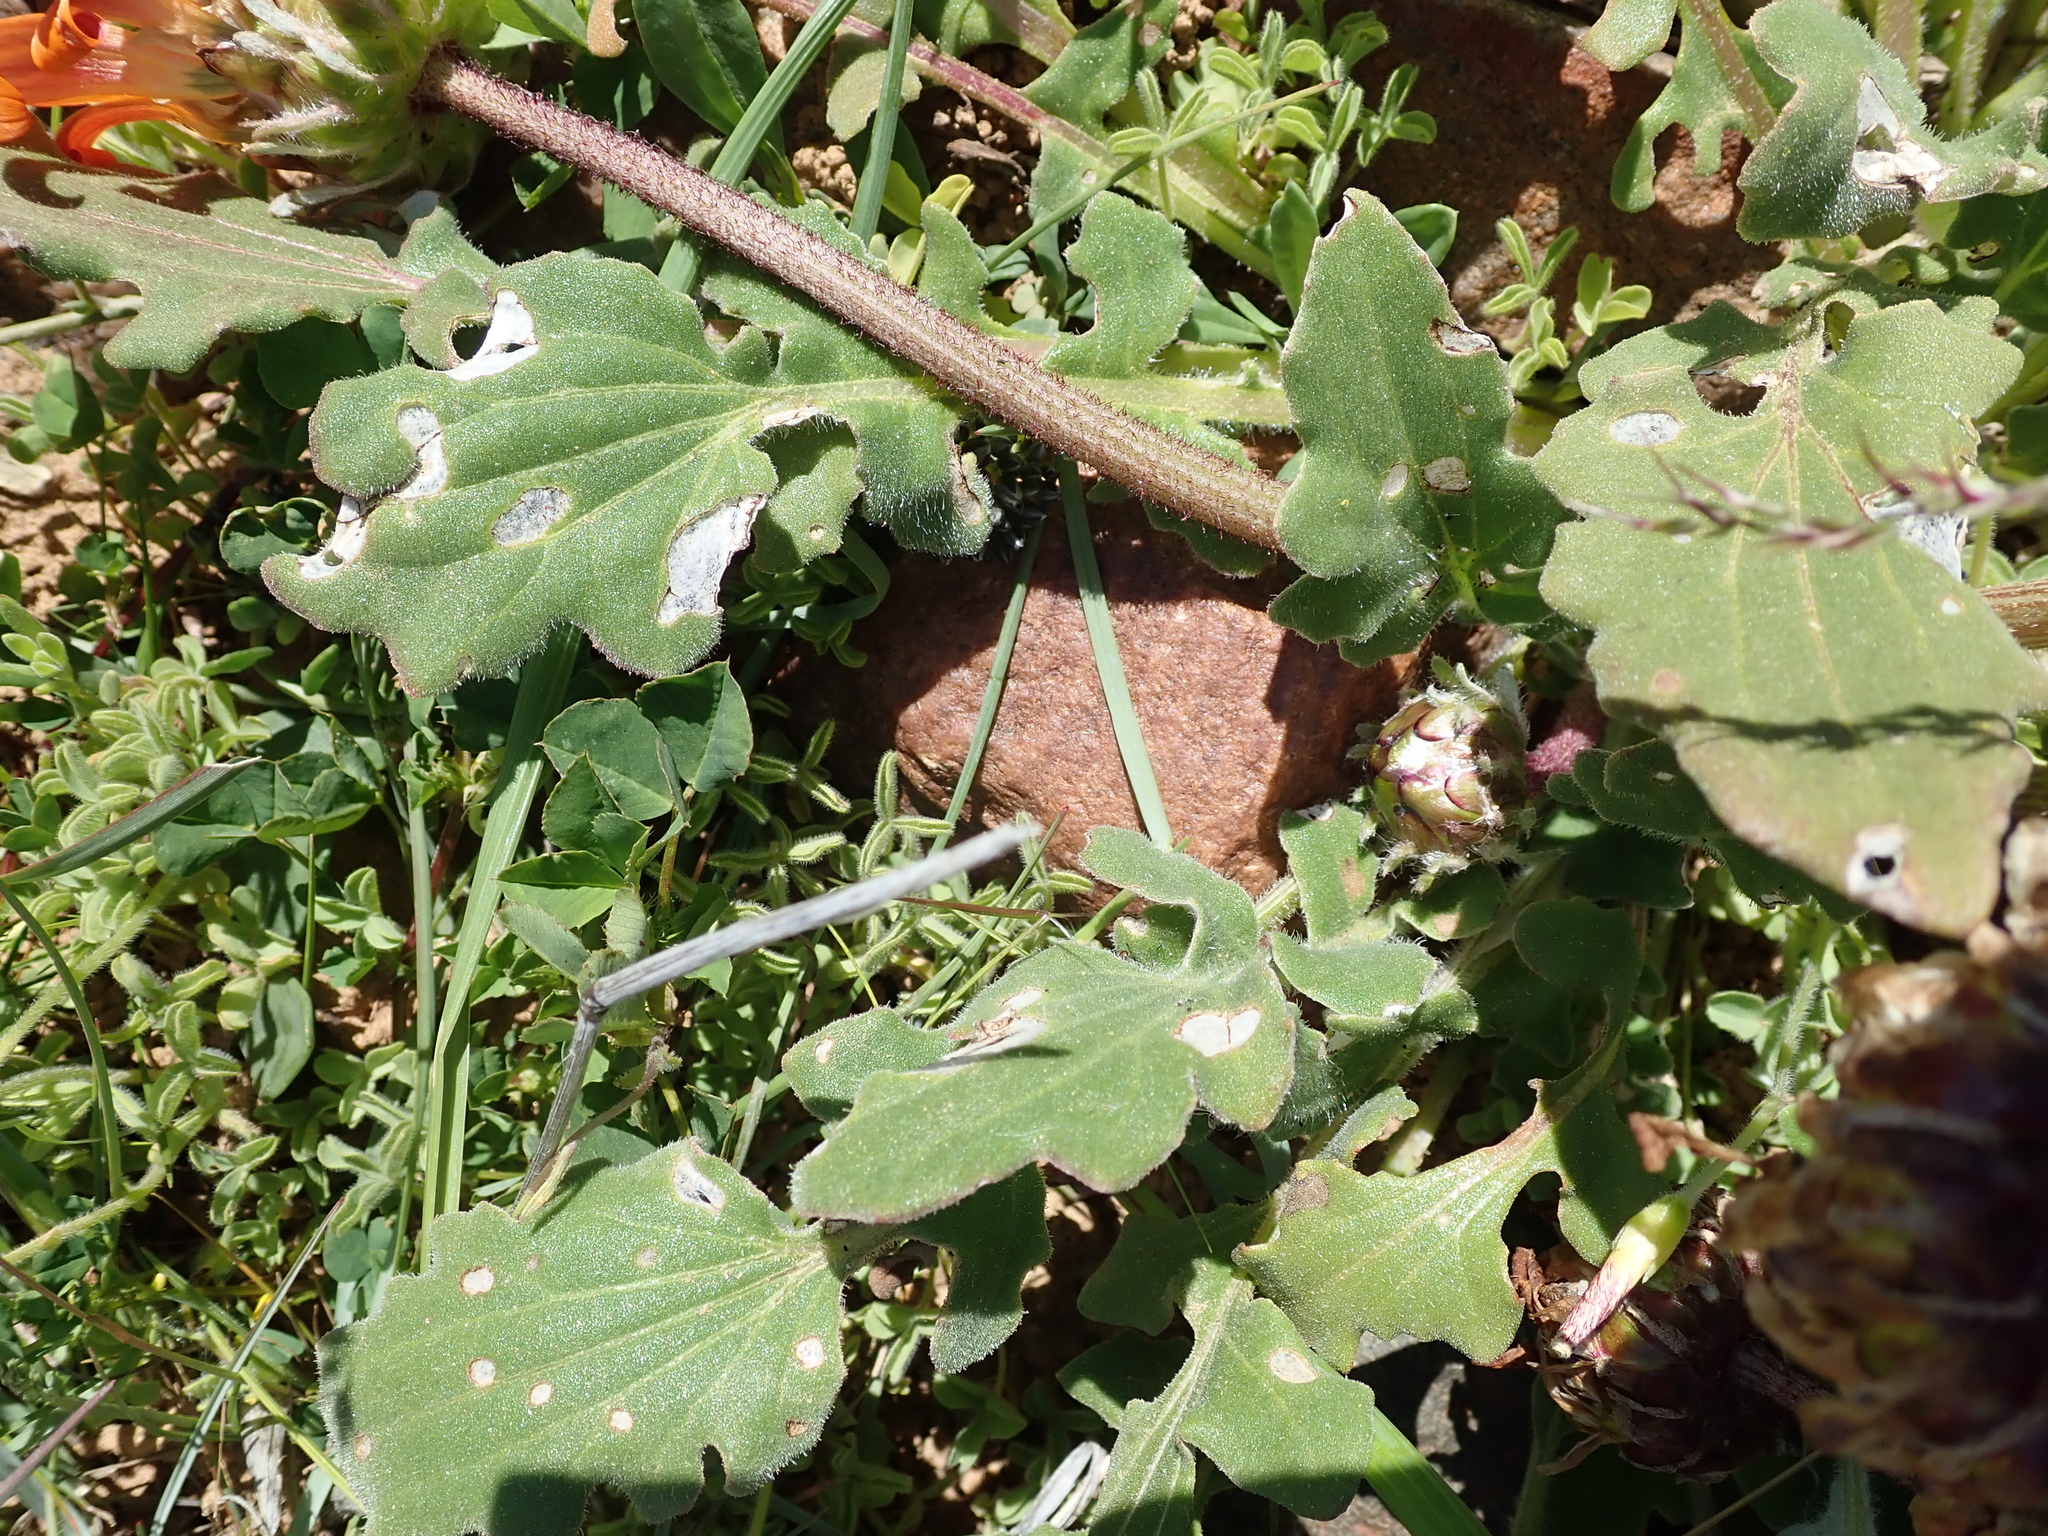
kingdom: Plantae
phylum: Tracheophyta
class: Magnoliopsida
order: Asterales
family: Asteraceae
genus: Arctotis
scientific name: Arctotis acaulis
